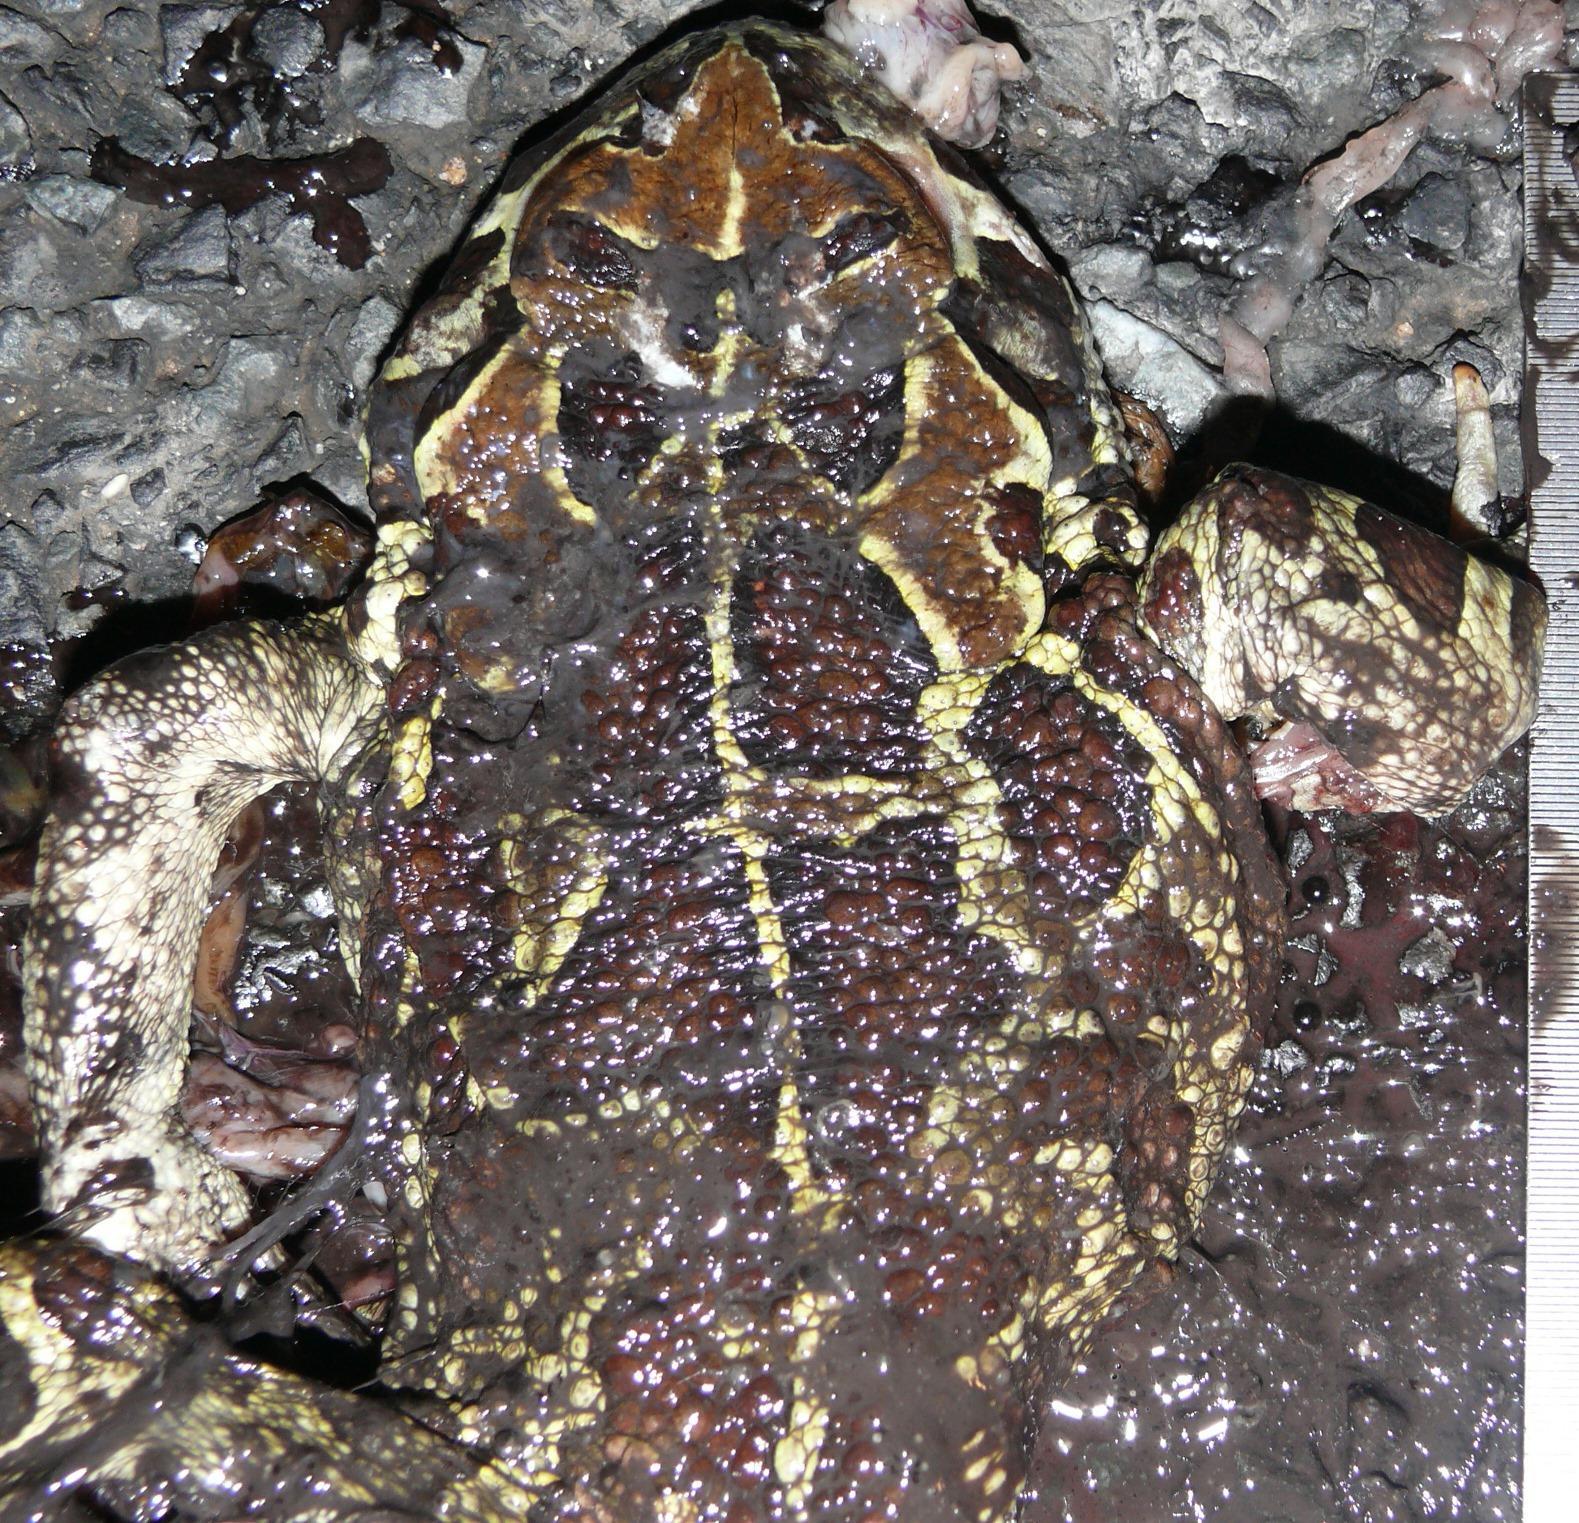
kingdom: Animalia
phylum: Chordata
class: Amphibia
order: Anura
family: Bufonidae
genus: Sclerophrys
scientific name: Sclerophrys pantherina
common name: Panther toad
